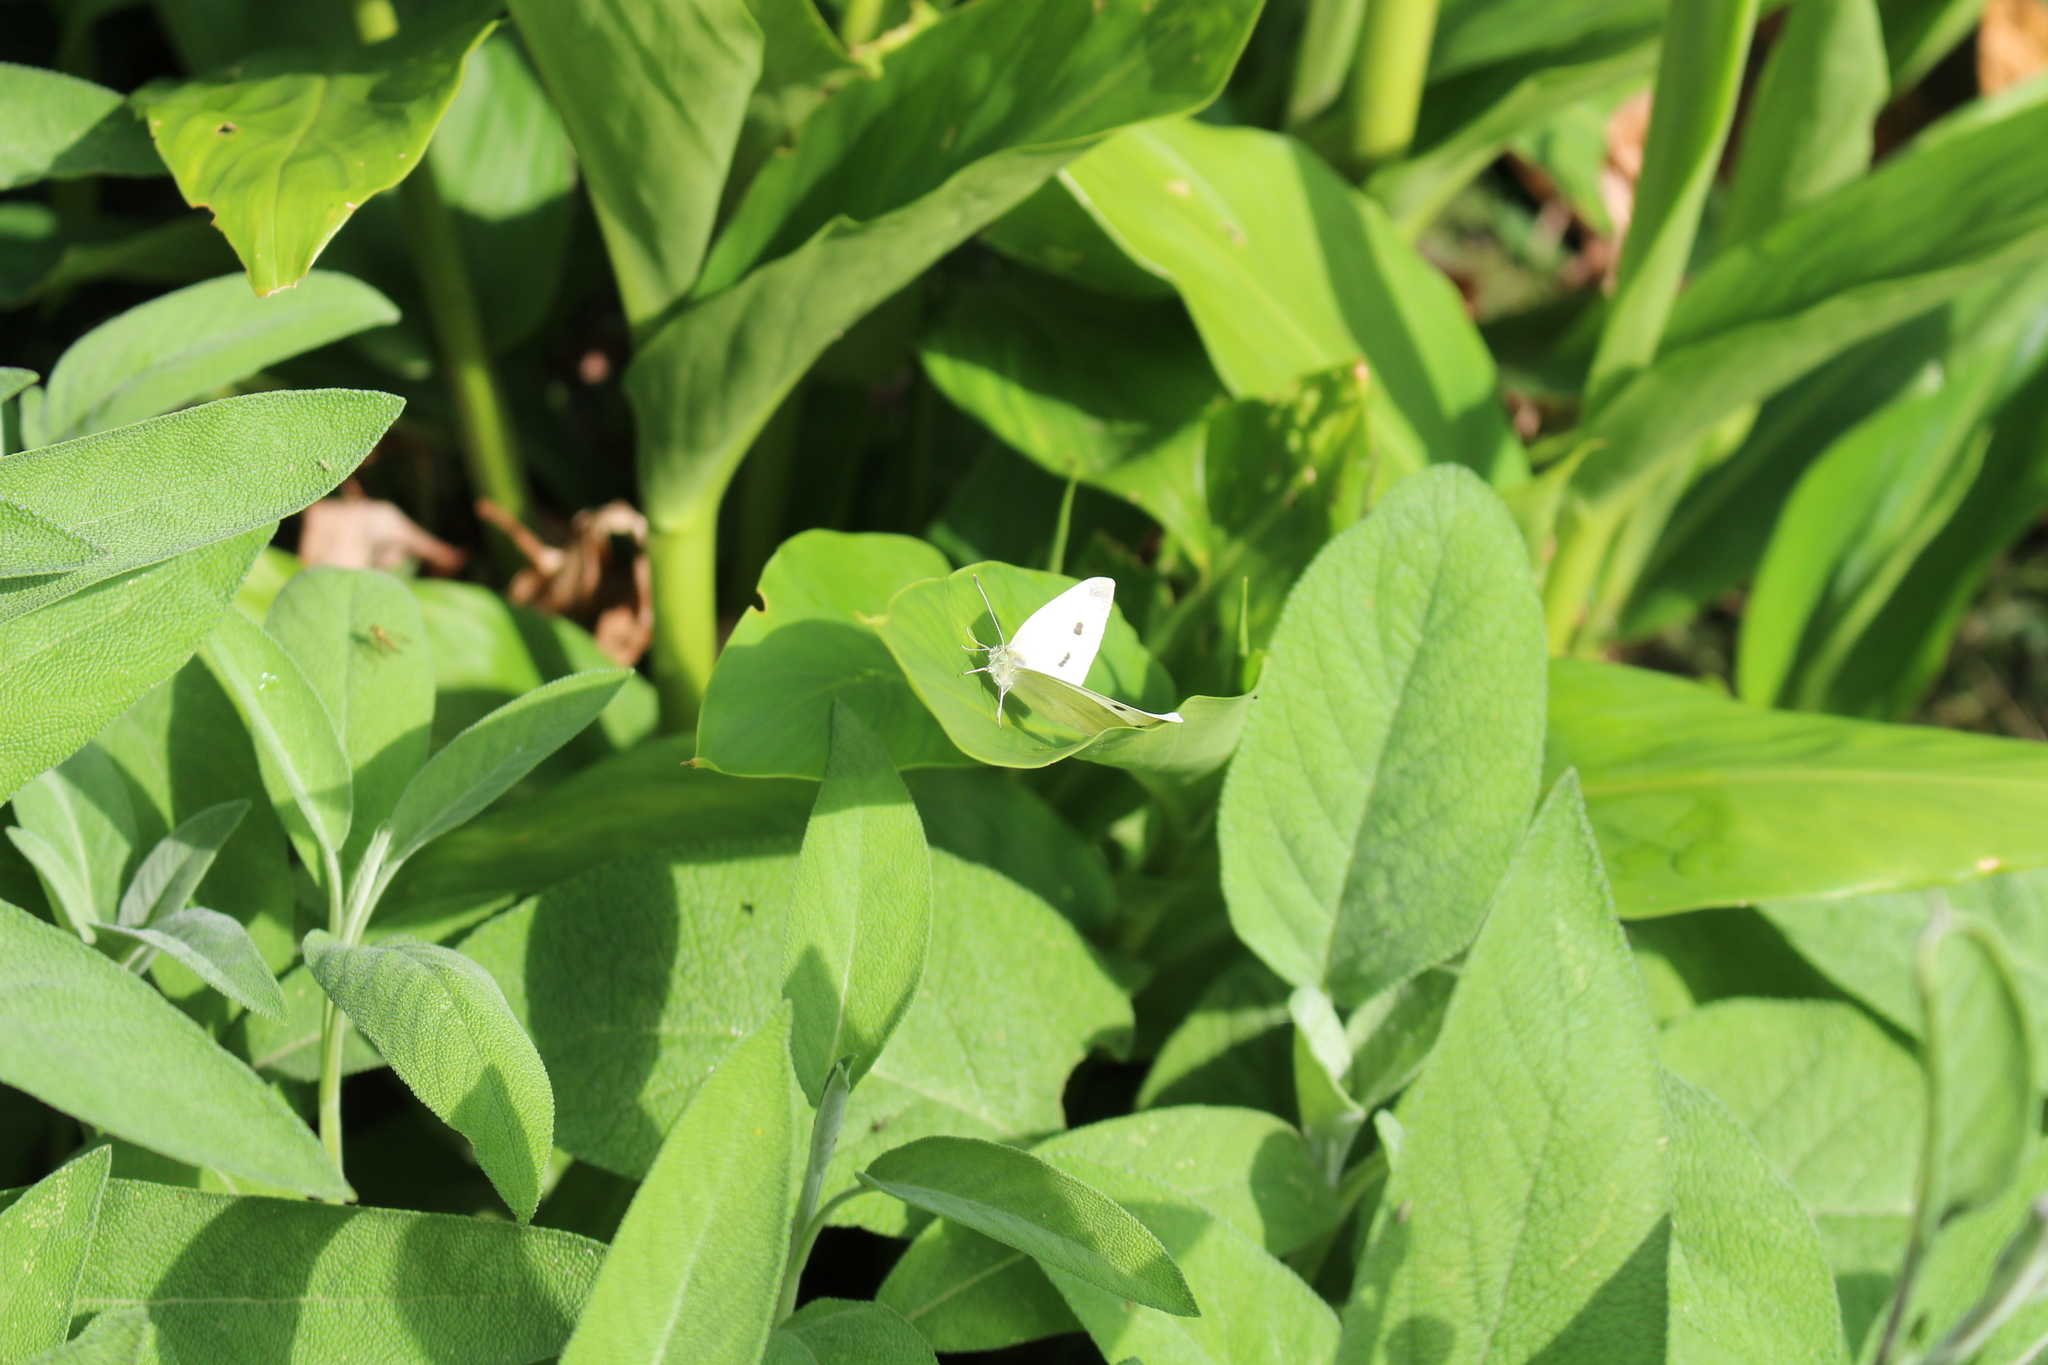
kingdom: Animalia
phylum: Arthropoda
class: Insecta
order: Lepidoptera
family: Pieridae
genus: Pieris
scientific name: Pieris rapae
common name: Small white
